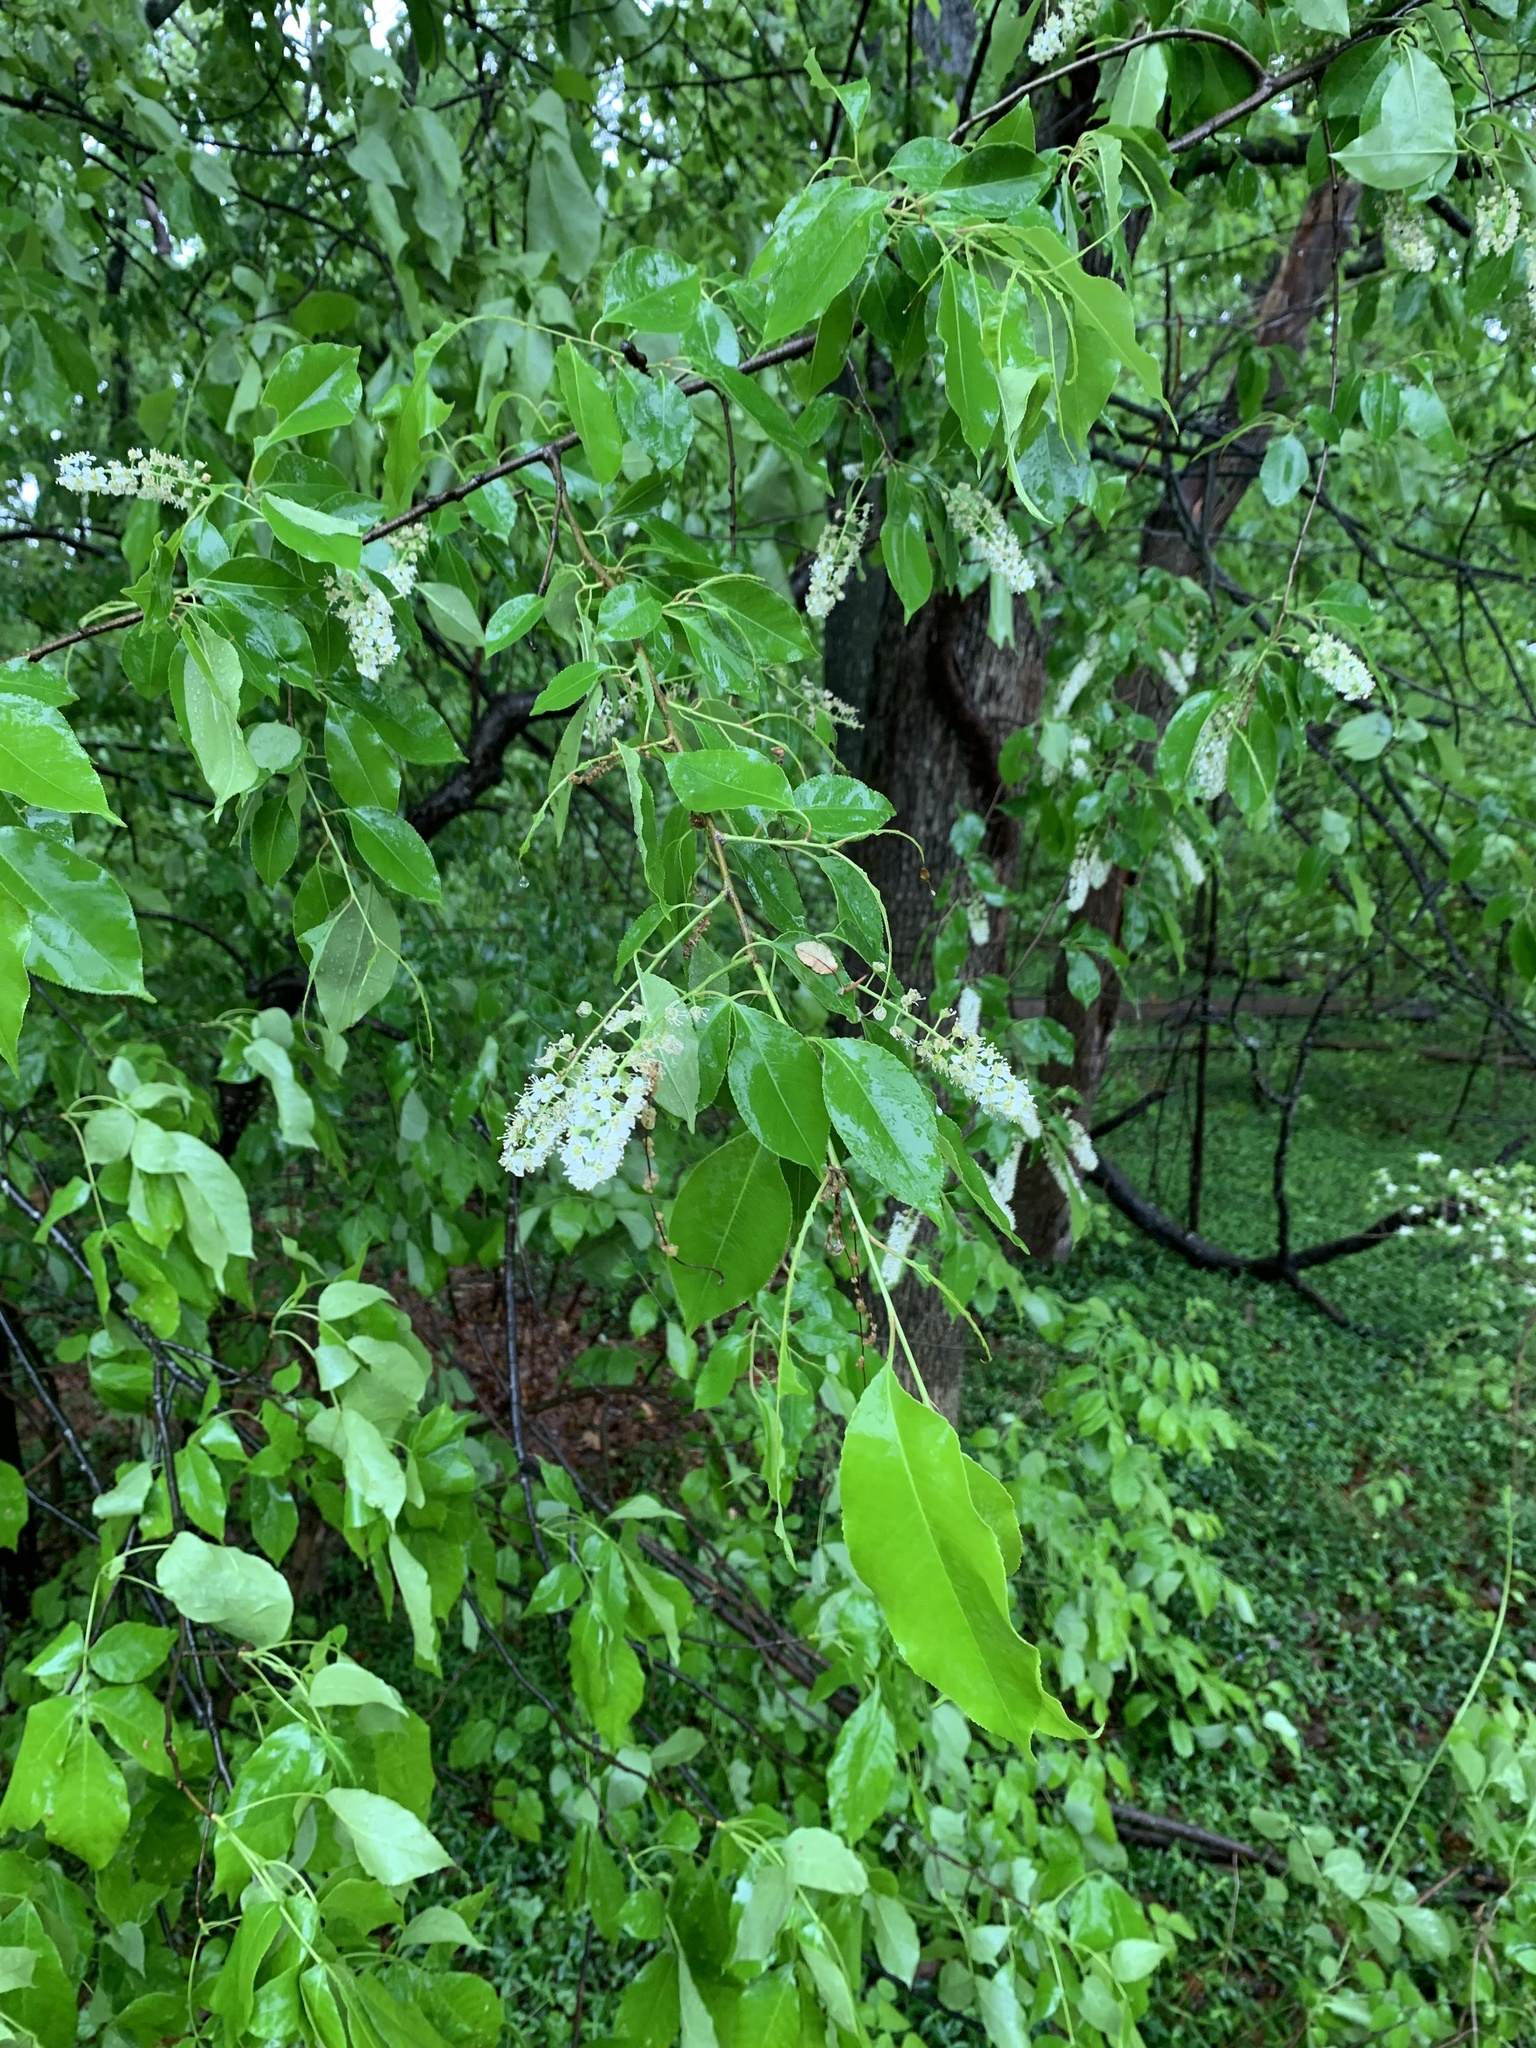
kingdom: Plantae
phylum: Tracheophyta
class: Magnoliopsida
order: Rosales
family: Rosaceae
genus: Prunus
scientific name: Prunus serotina
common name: Black cherry
